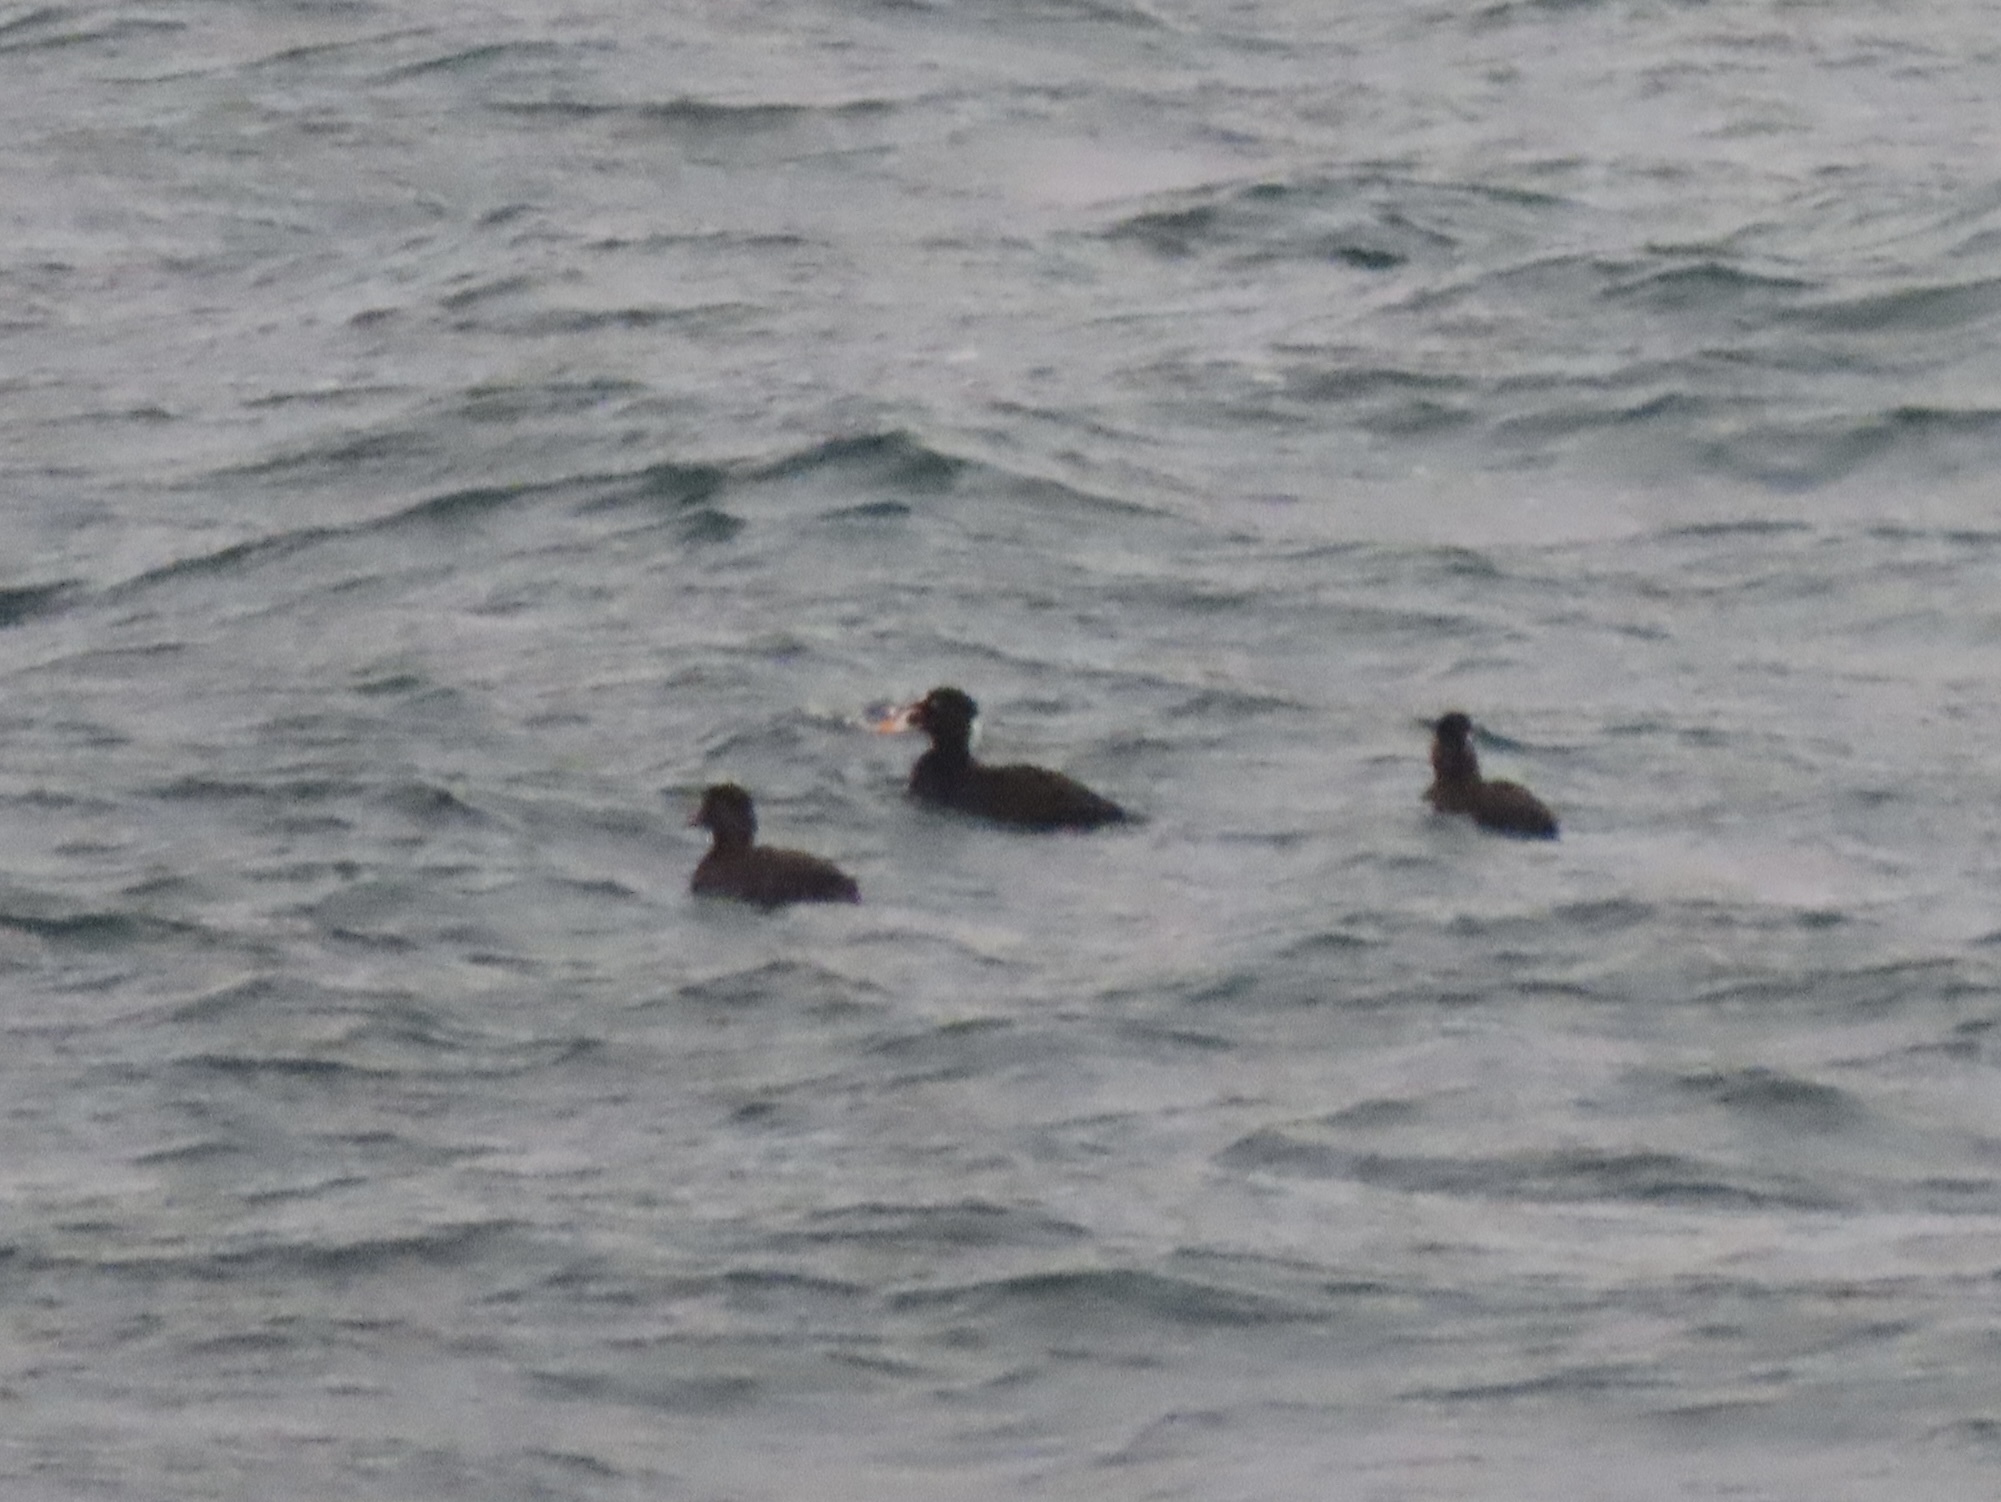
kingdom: Animalia
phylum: Chordata
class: Aves
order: Anseriformes
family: Anatidae
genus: Melanitta
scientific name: Melanitta perspicillata
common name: Surf scoter
